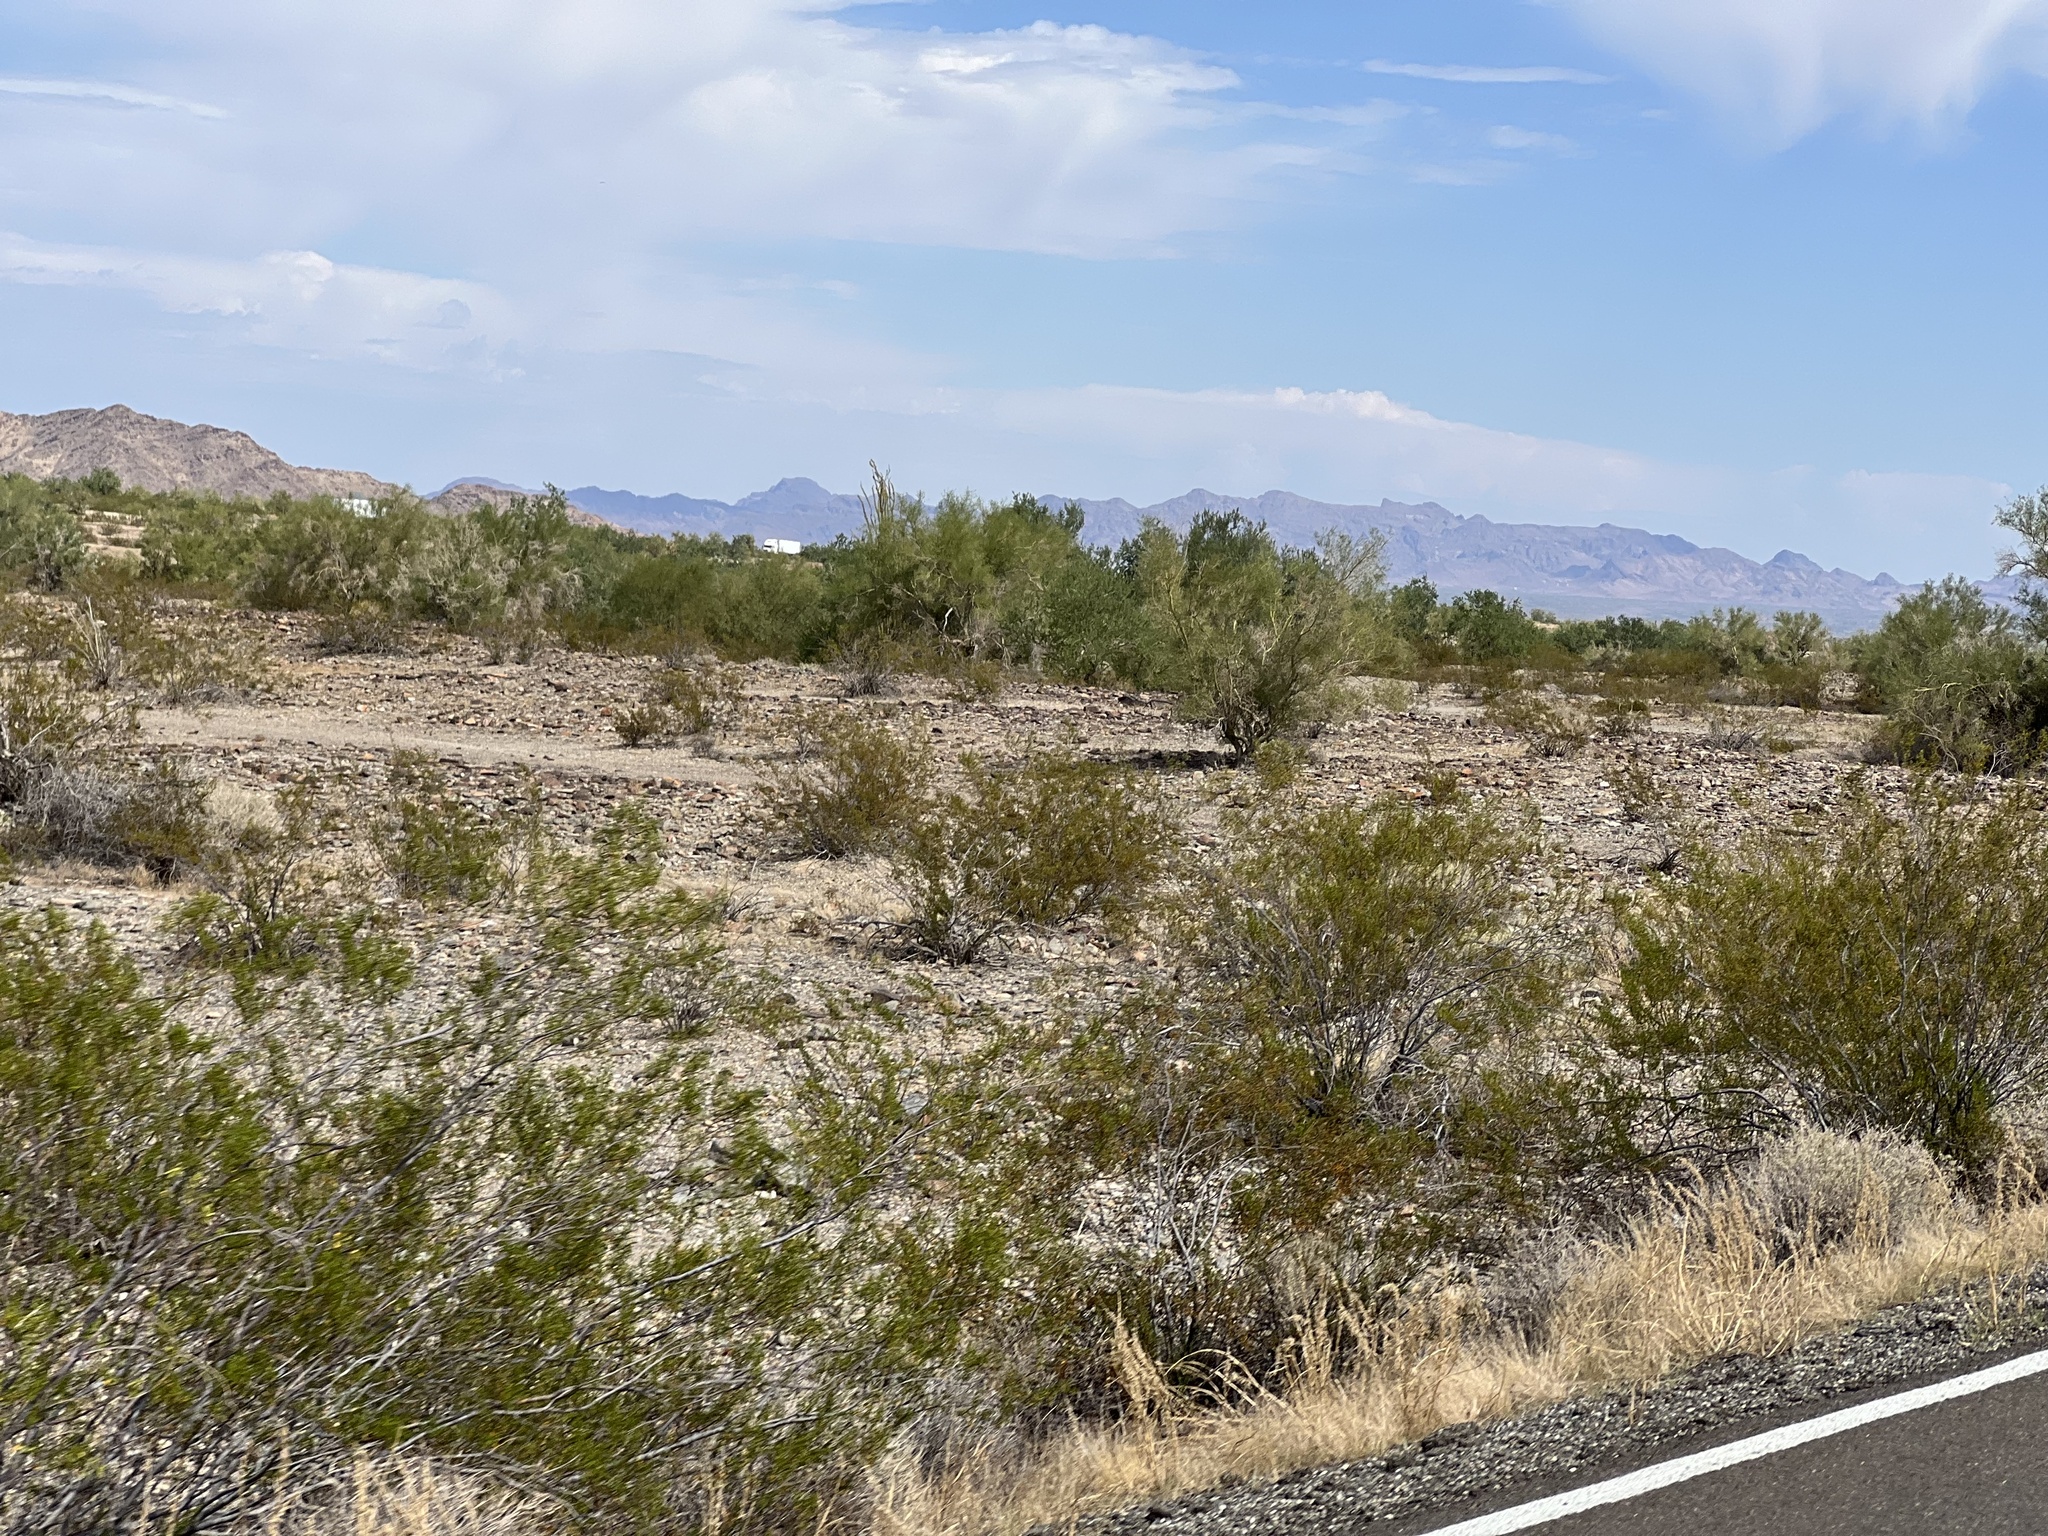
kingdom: Plantae
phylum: Tracheophyta
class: Magnoliopsida
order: Zygophyllales
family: Zygophyllaceae
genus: Larrea
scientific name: Larrea tridentata
